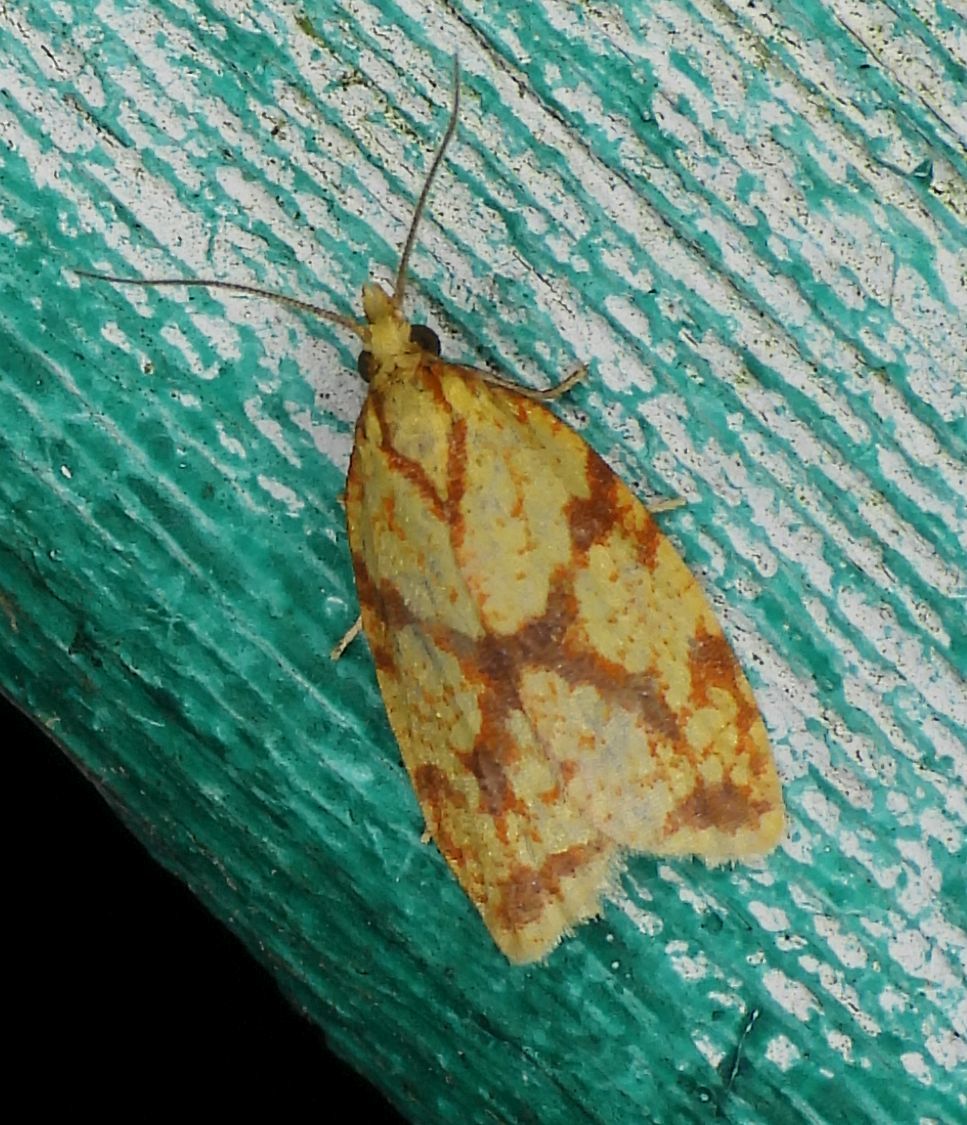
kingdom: Animalia
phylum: Arthropoda
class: Insecta
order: Lepidoptera
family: Tortricidae
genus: Sparganothis
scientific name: Sparganothis sulfureana
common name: Sparganothis fruitworm moth
